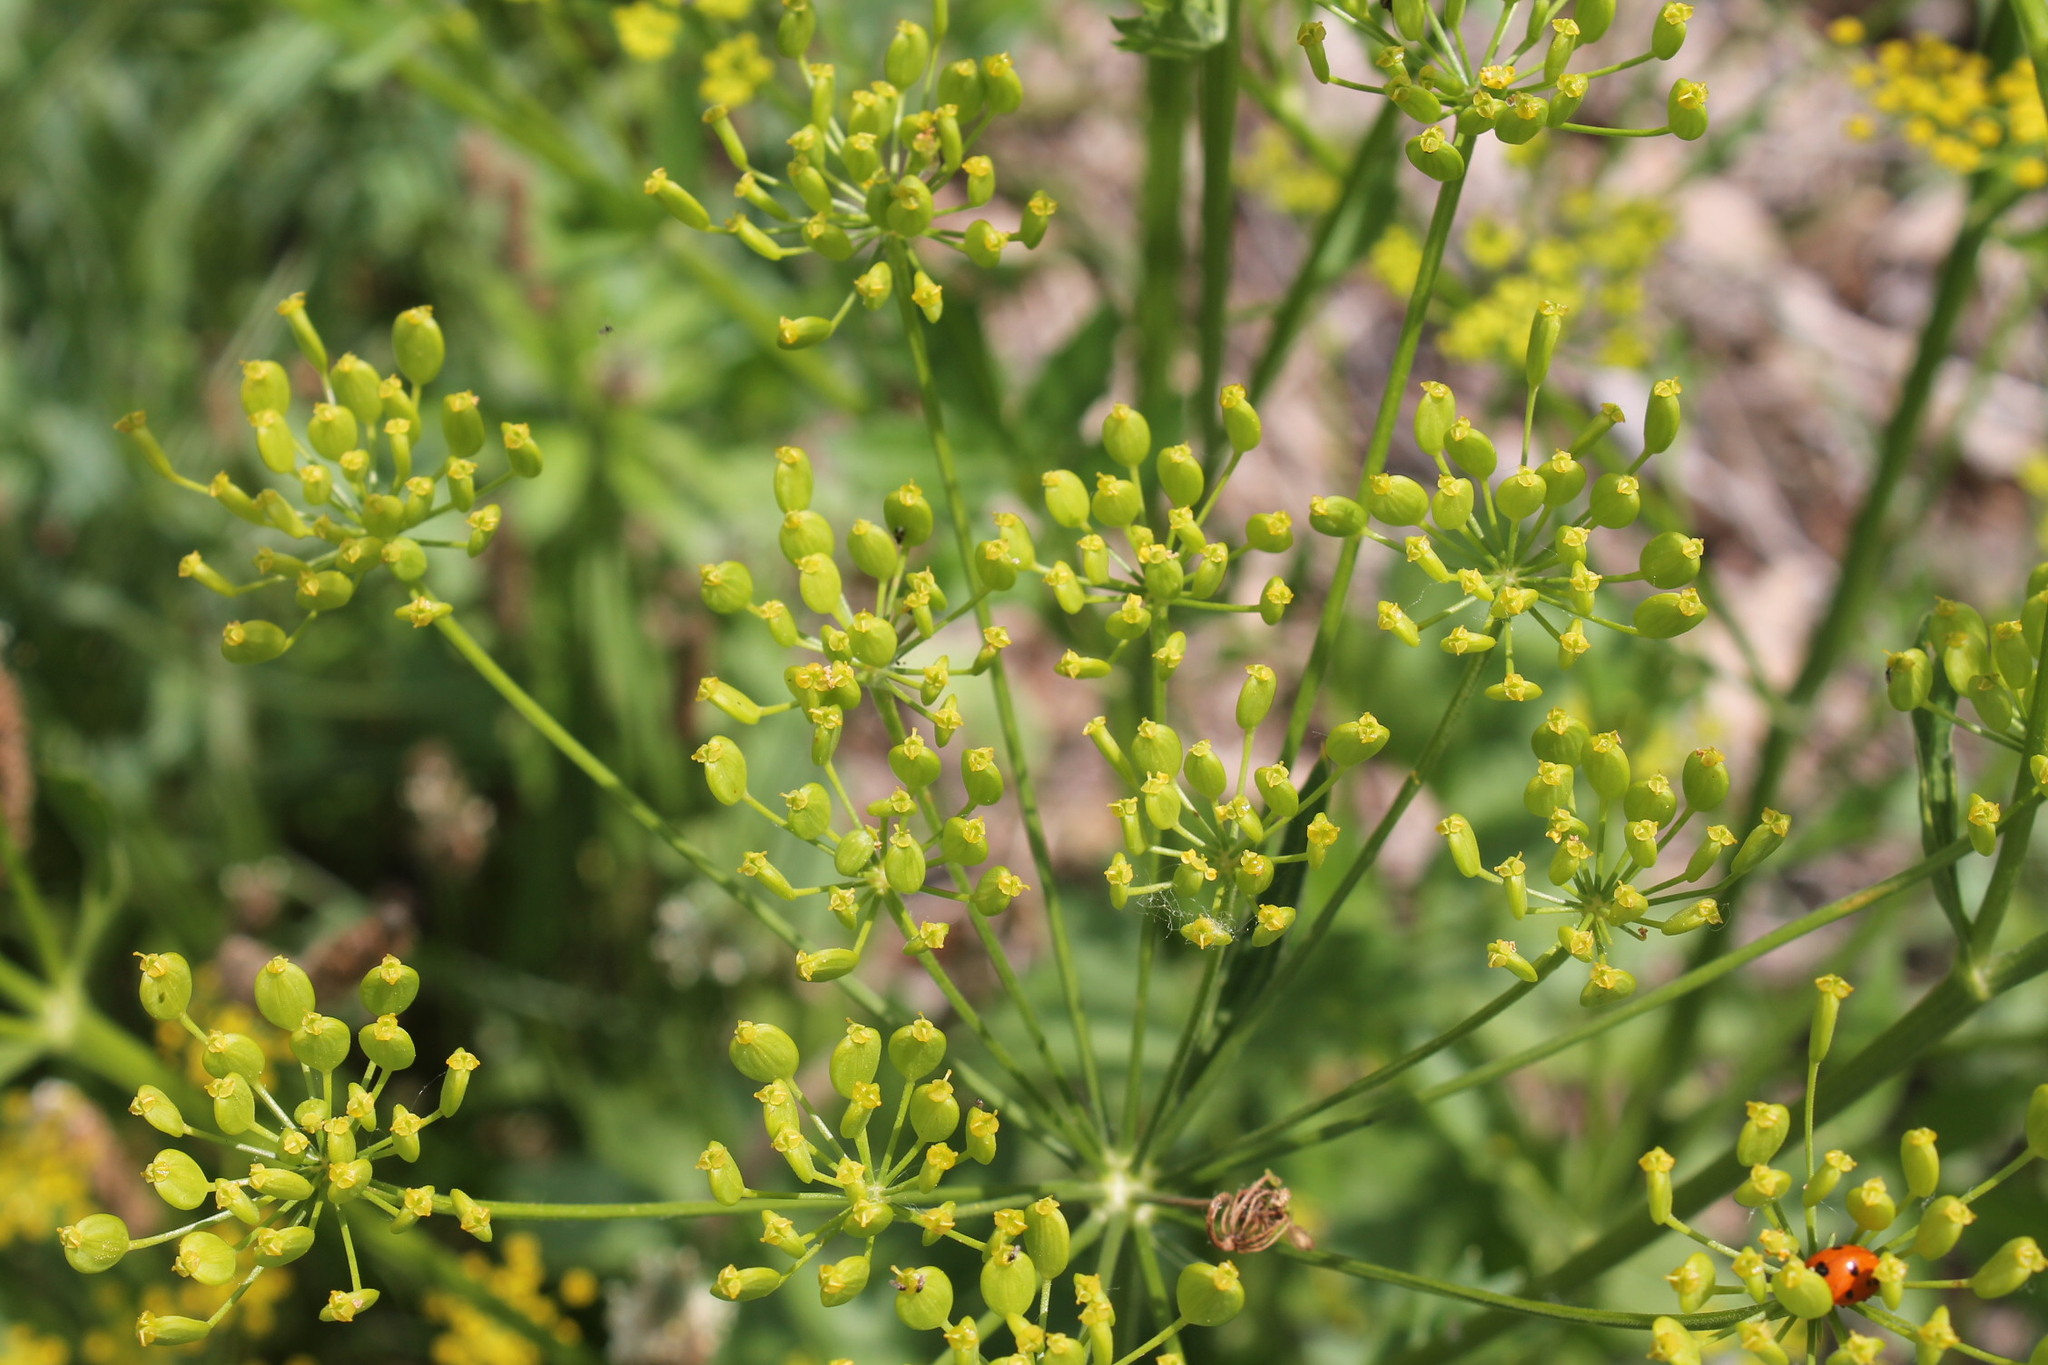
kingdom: Animalia
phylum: Arthropoda
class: Insecta
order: Coleoptera
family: Coccinellidae
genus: Coccinella
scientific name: Coccinella septempunctata
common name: Sevenspotted lady beetle
